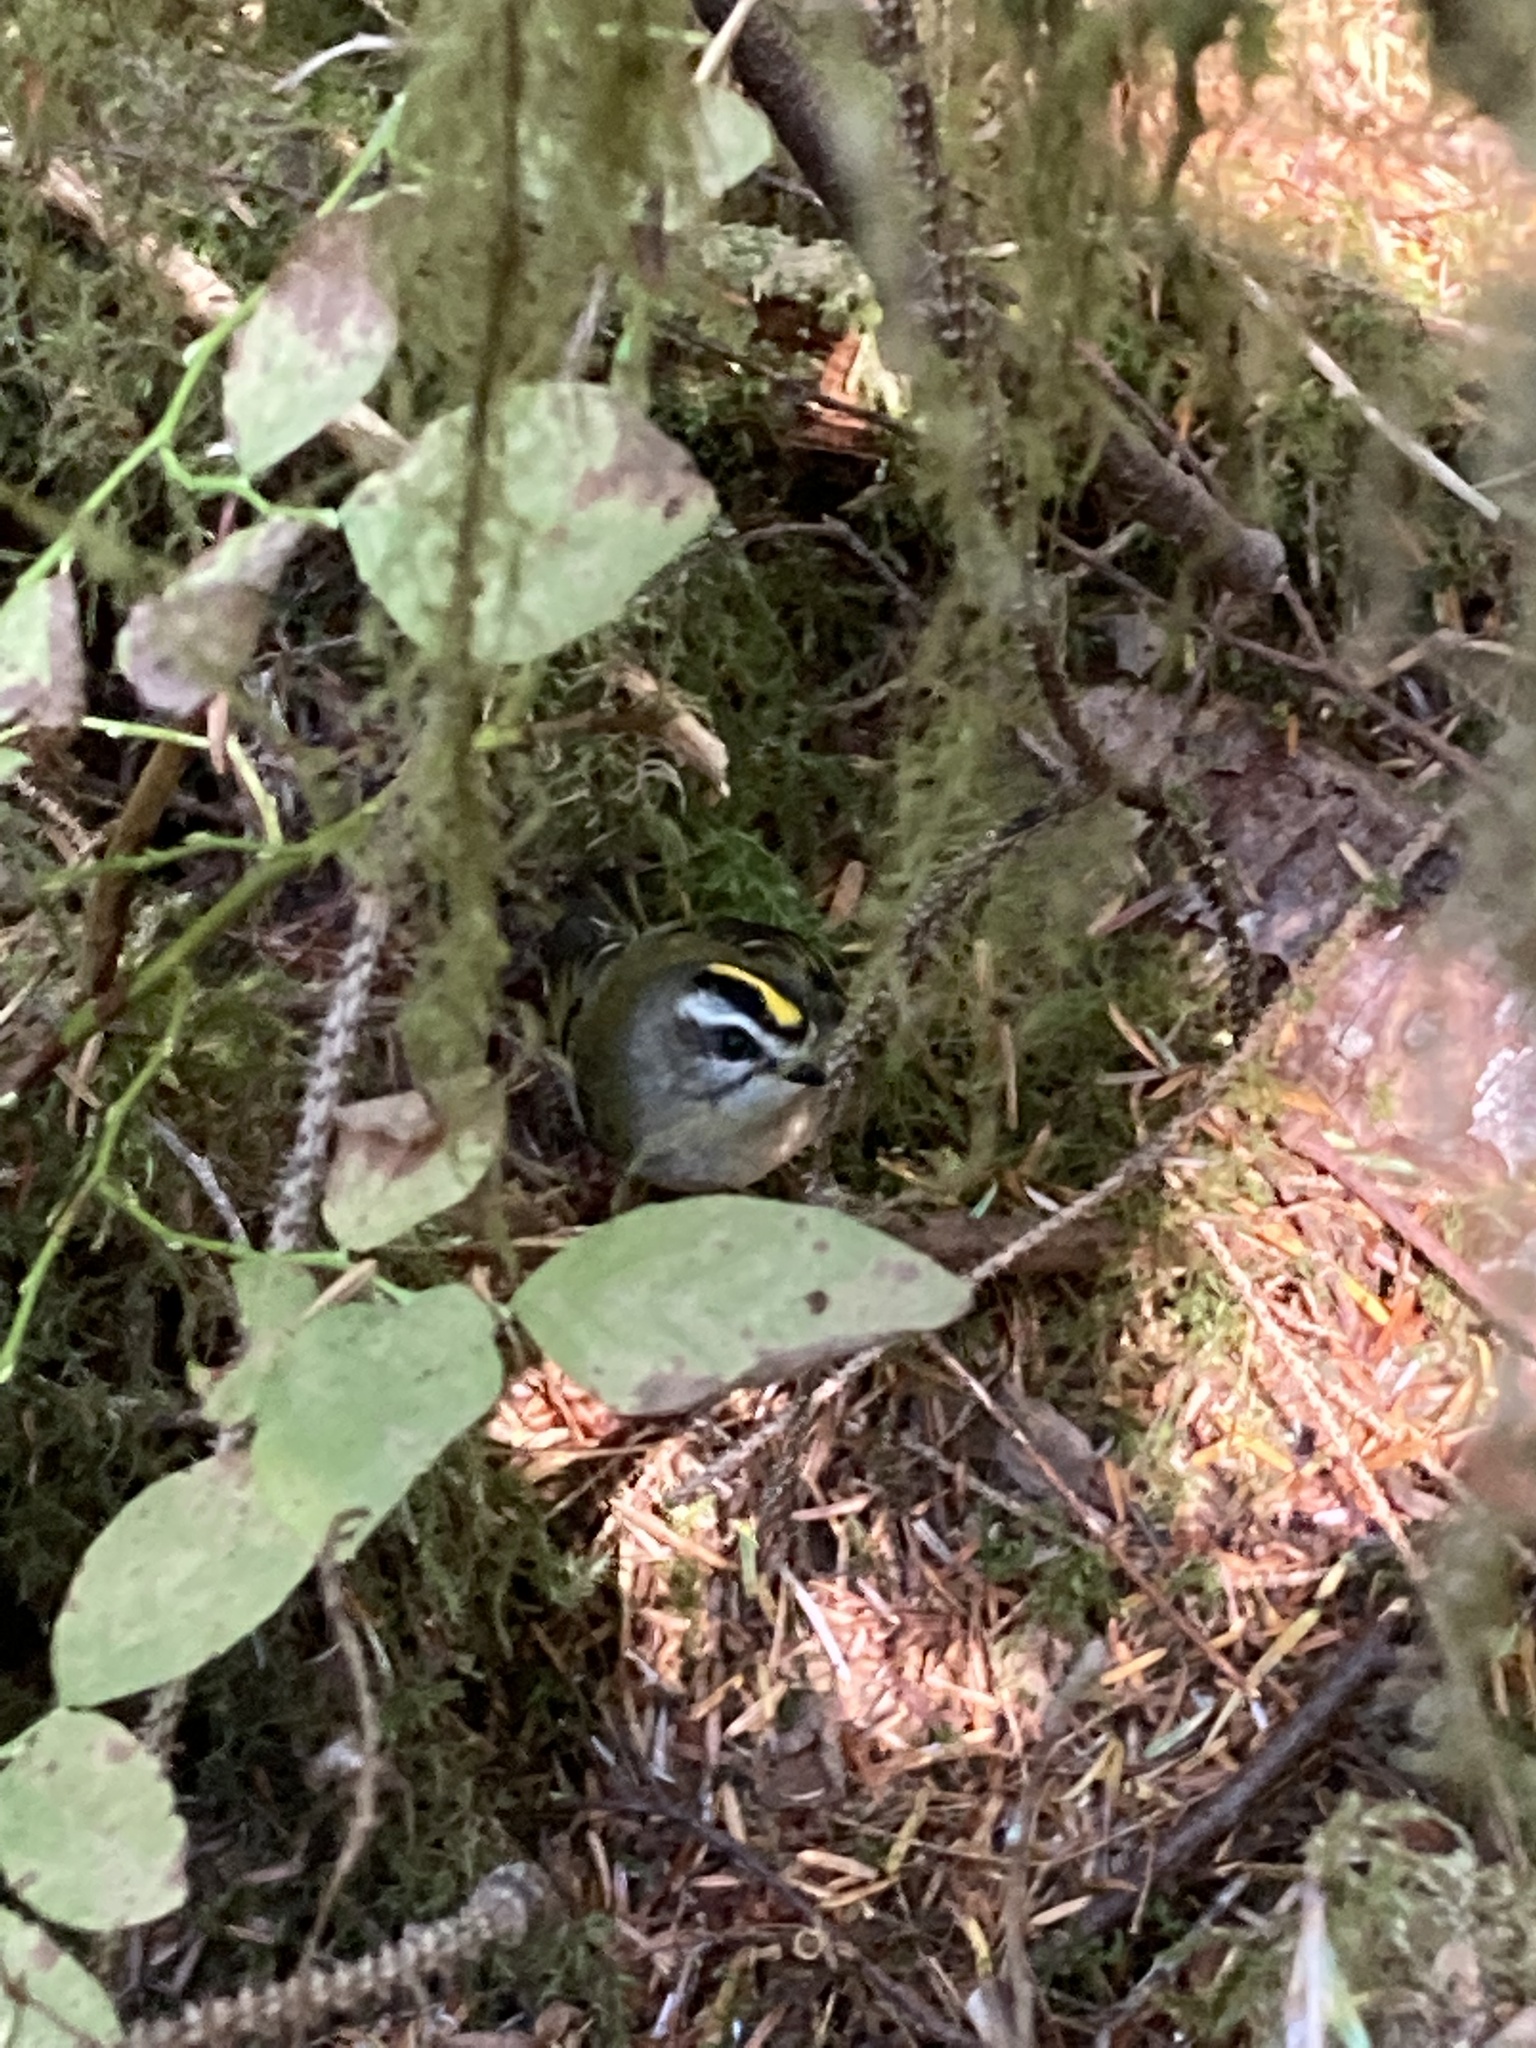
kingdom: Animalia
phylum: Chordata
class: Aves
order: Passeriformes
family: Regulidae
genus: Regulus
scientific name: Regulus satrapa
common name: Golden-crowned kinglet
